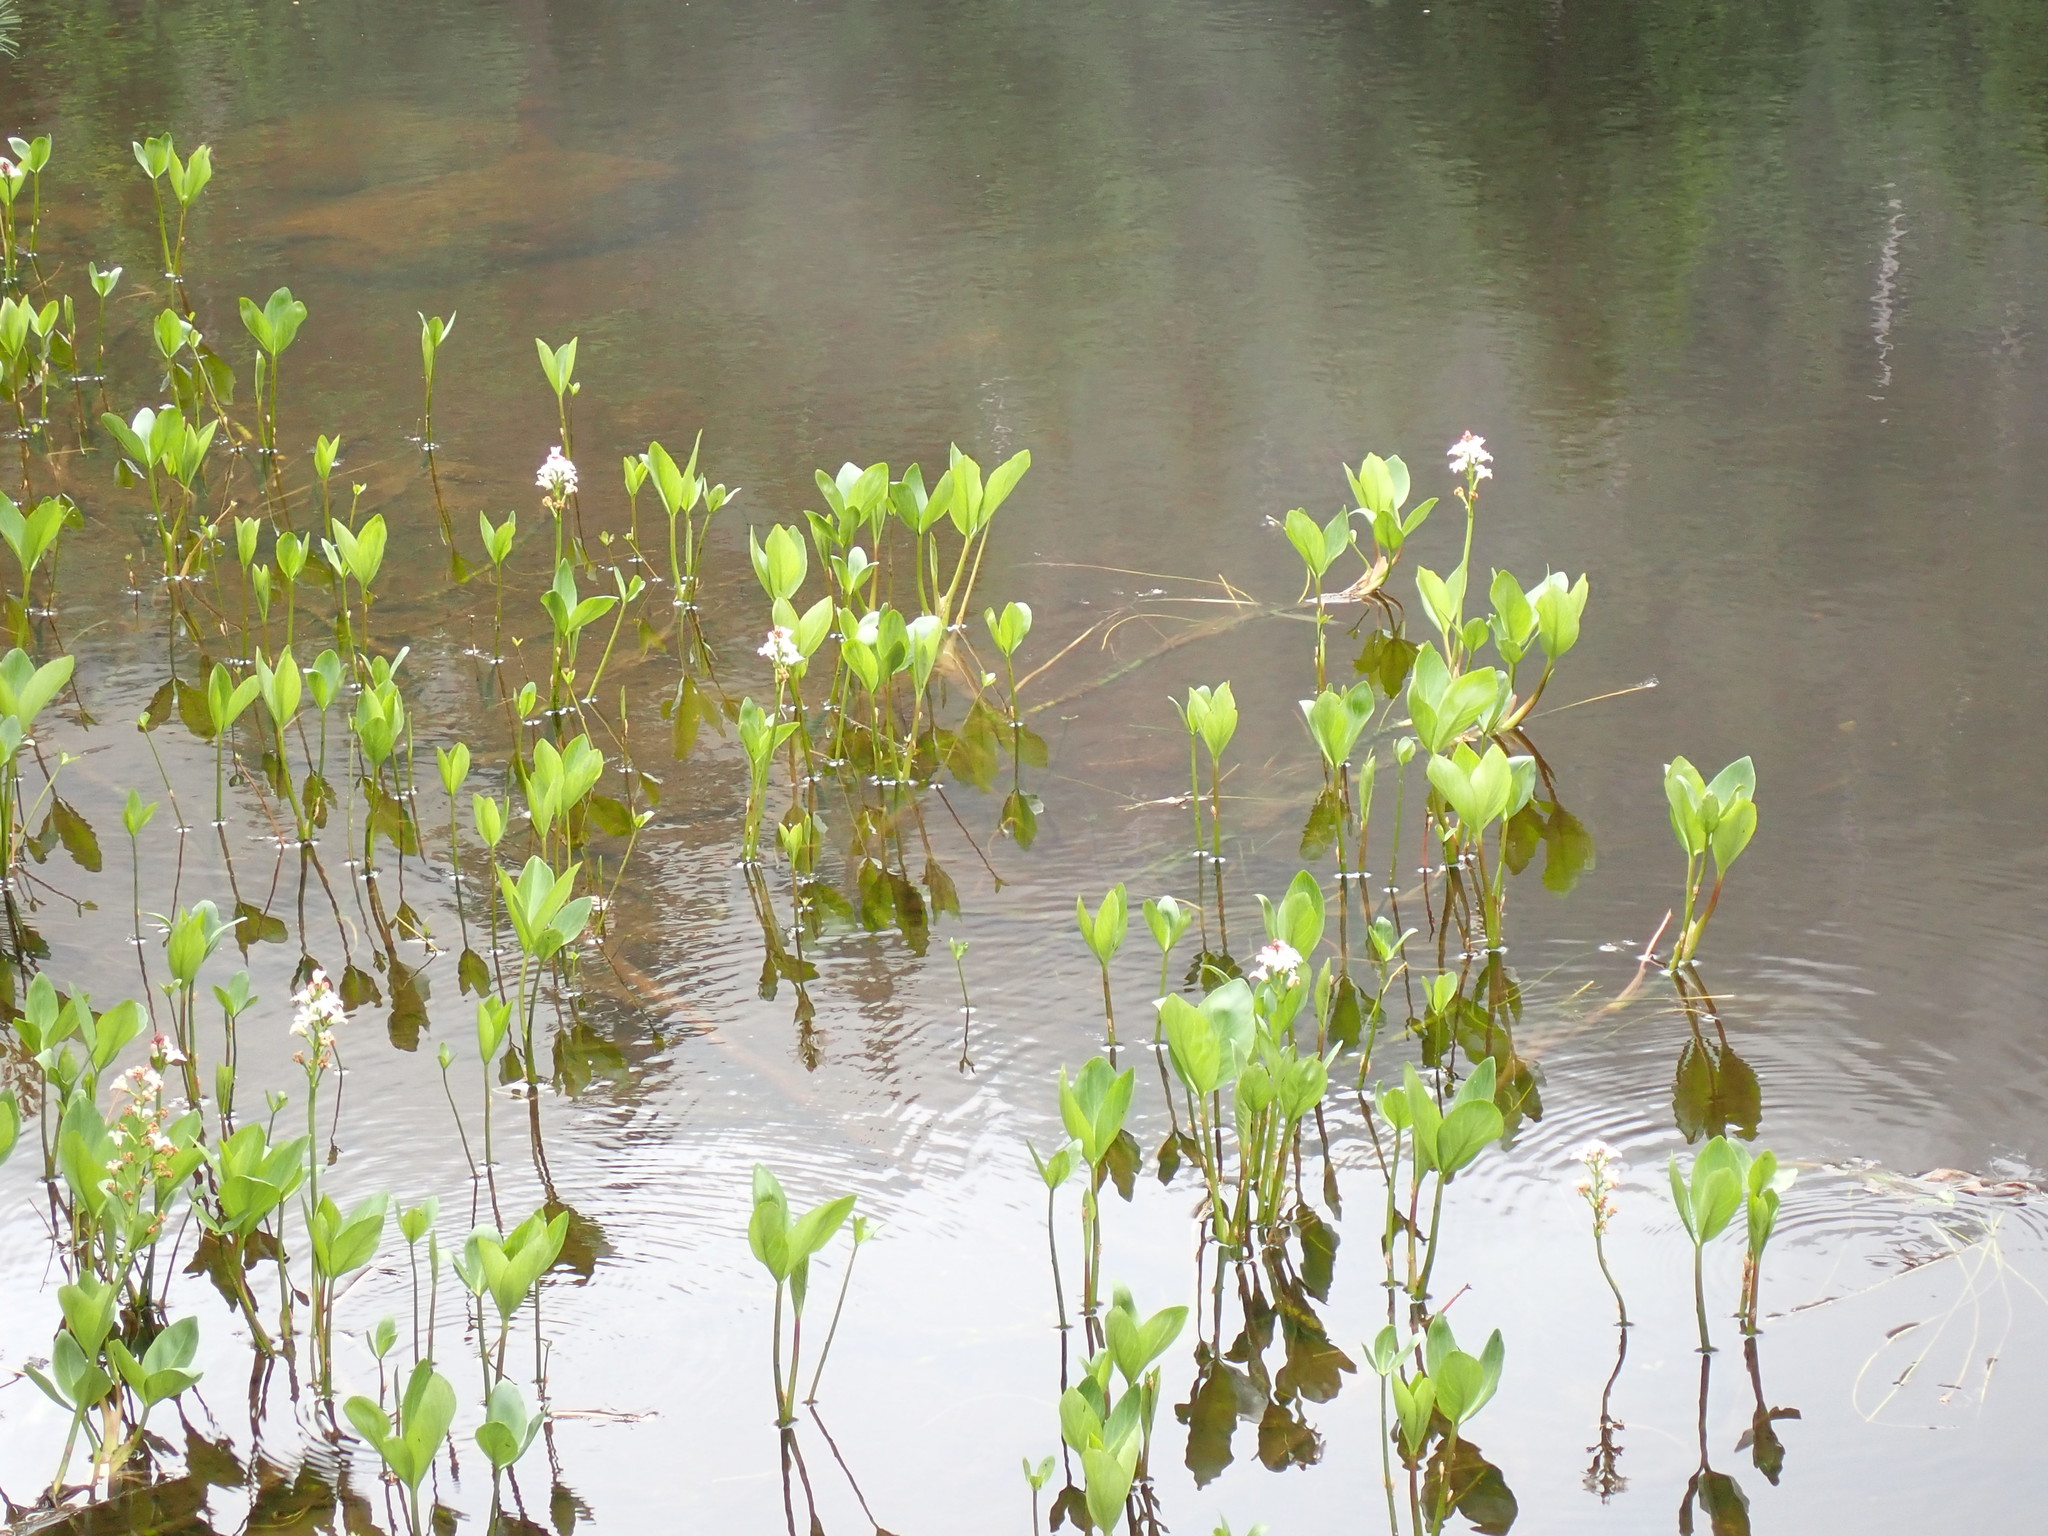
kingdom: Plantae
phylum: Tracheophyta
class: Magnoliopsida
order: Asterales
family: Menyanthaceae
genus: Menyanthes
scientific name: Menyanthes trifoliata
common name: Bogbean
